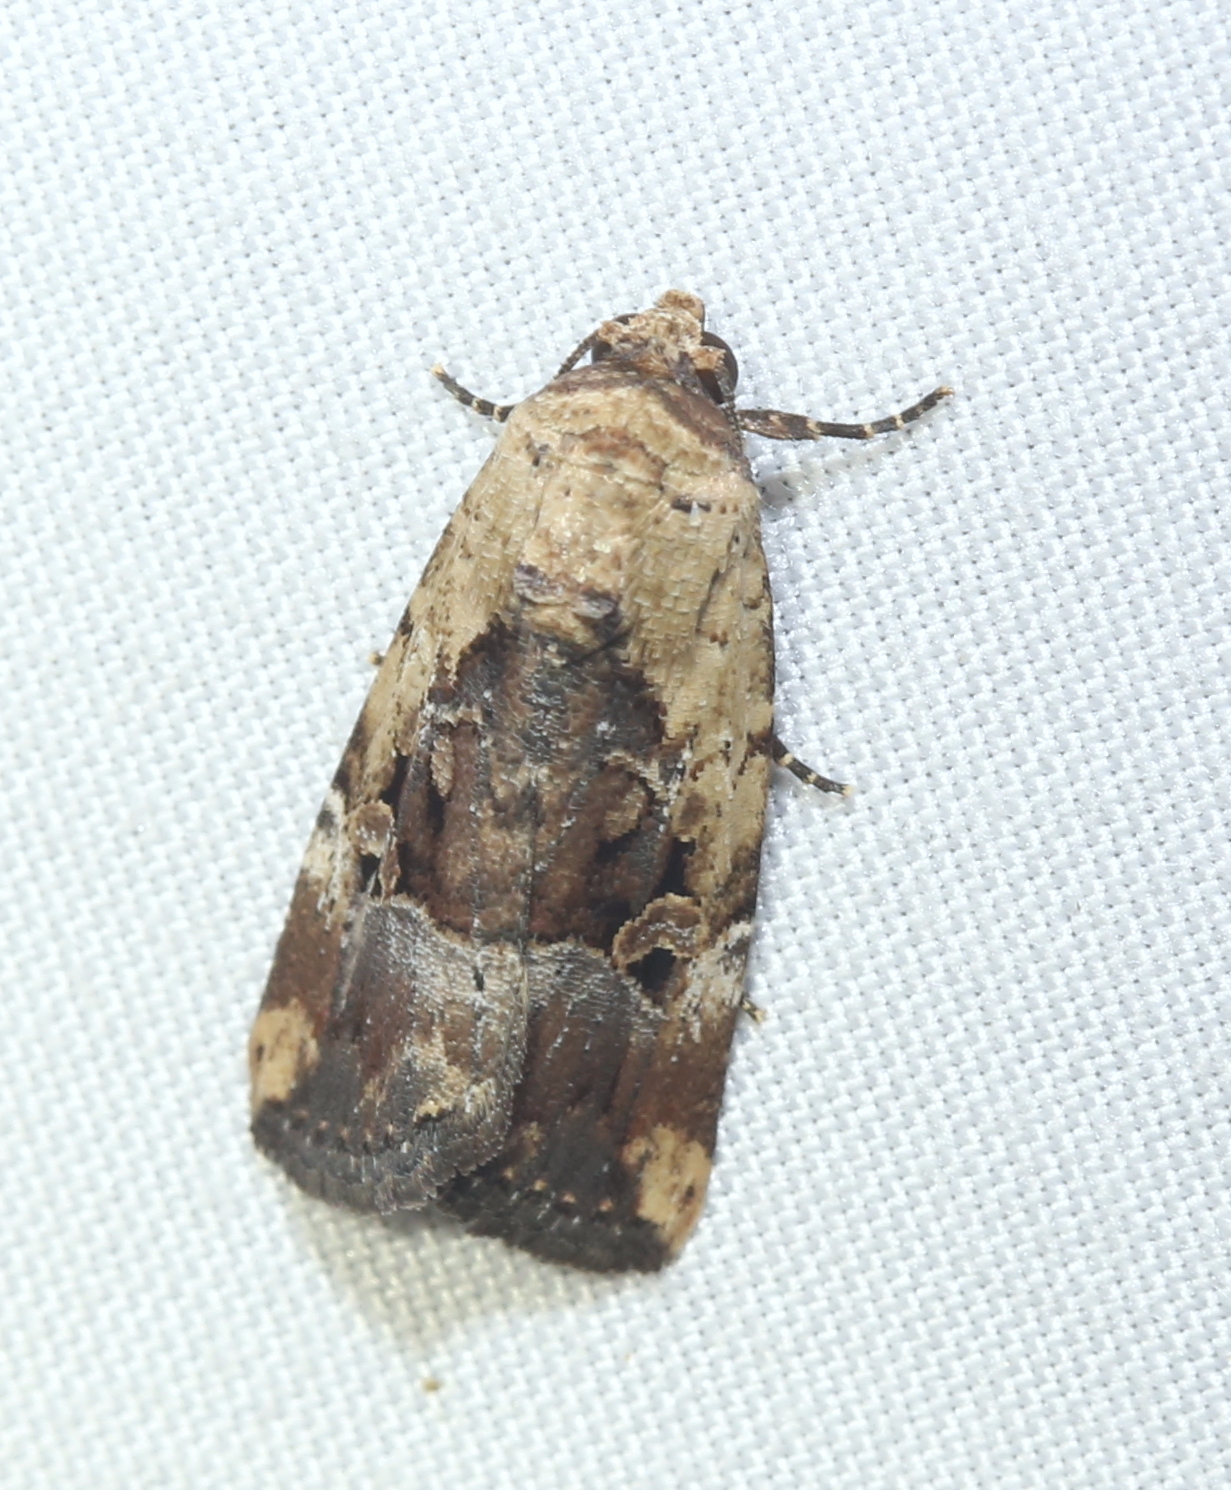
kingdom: Animalia
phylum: Arthropoda
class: Insecta
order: Lepidoptera
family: Noctuidae
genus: Elaphria
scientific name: Elaphria chalcedonia
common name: Chalcedony midget
